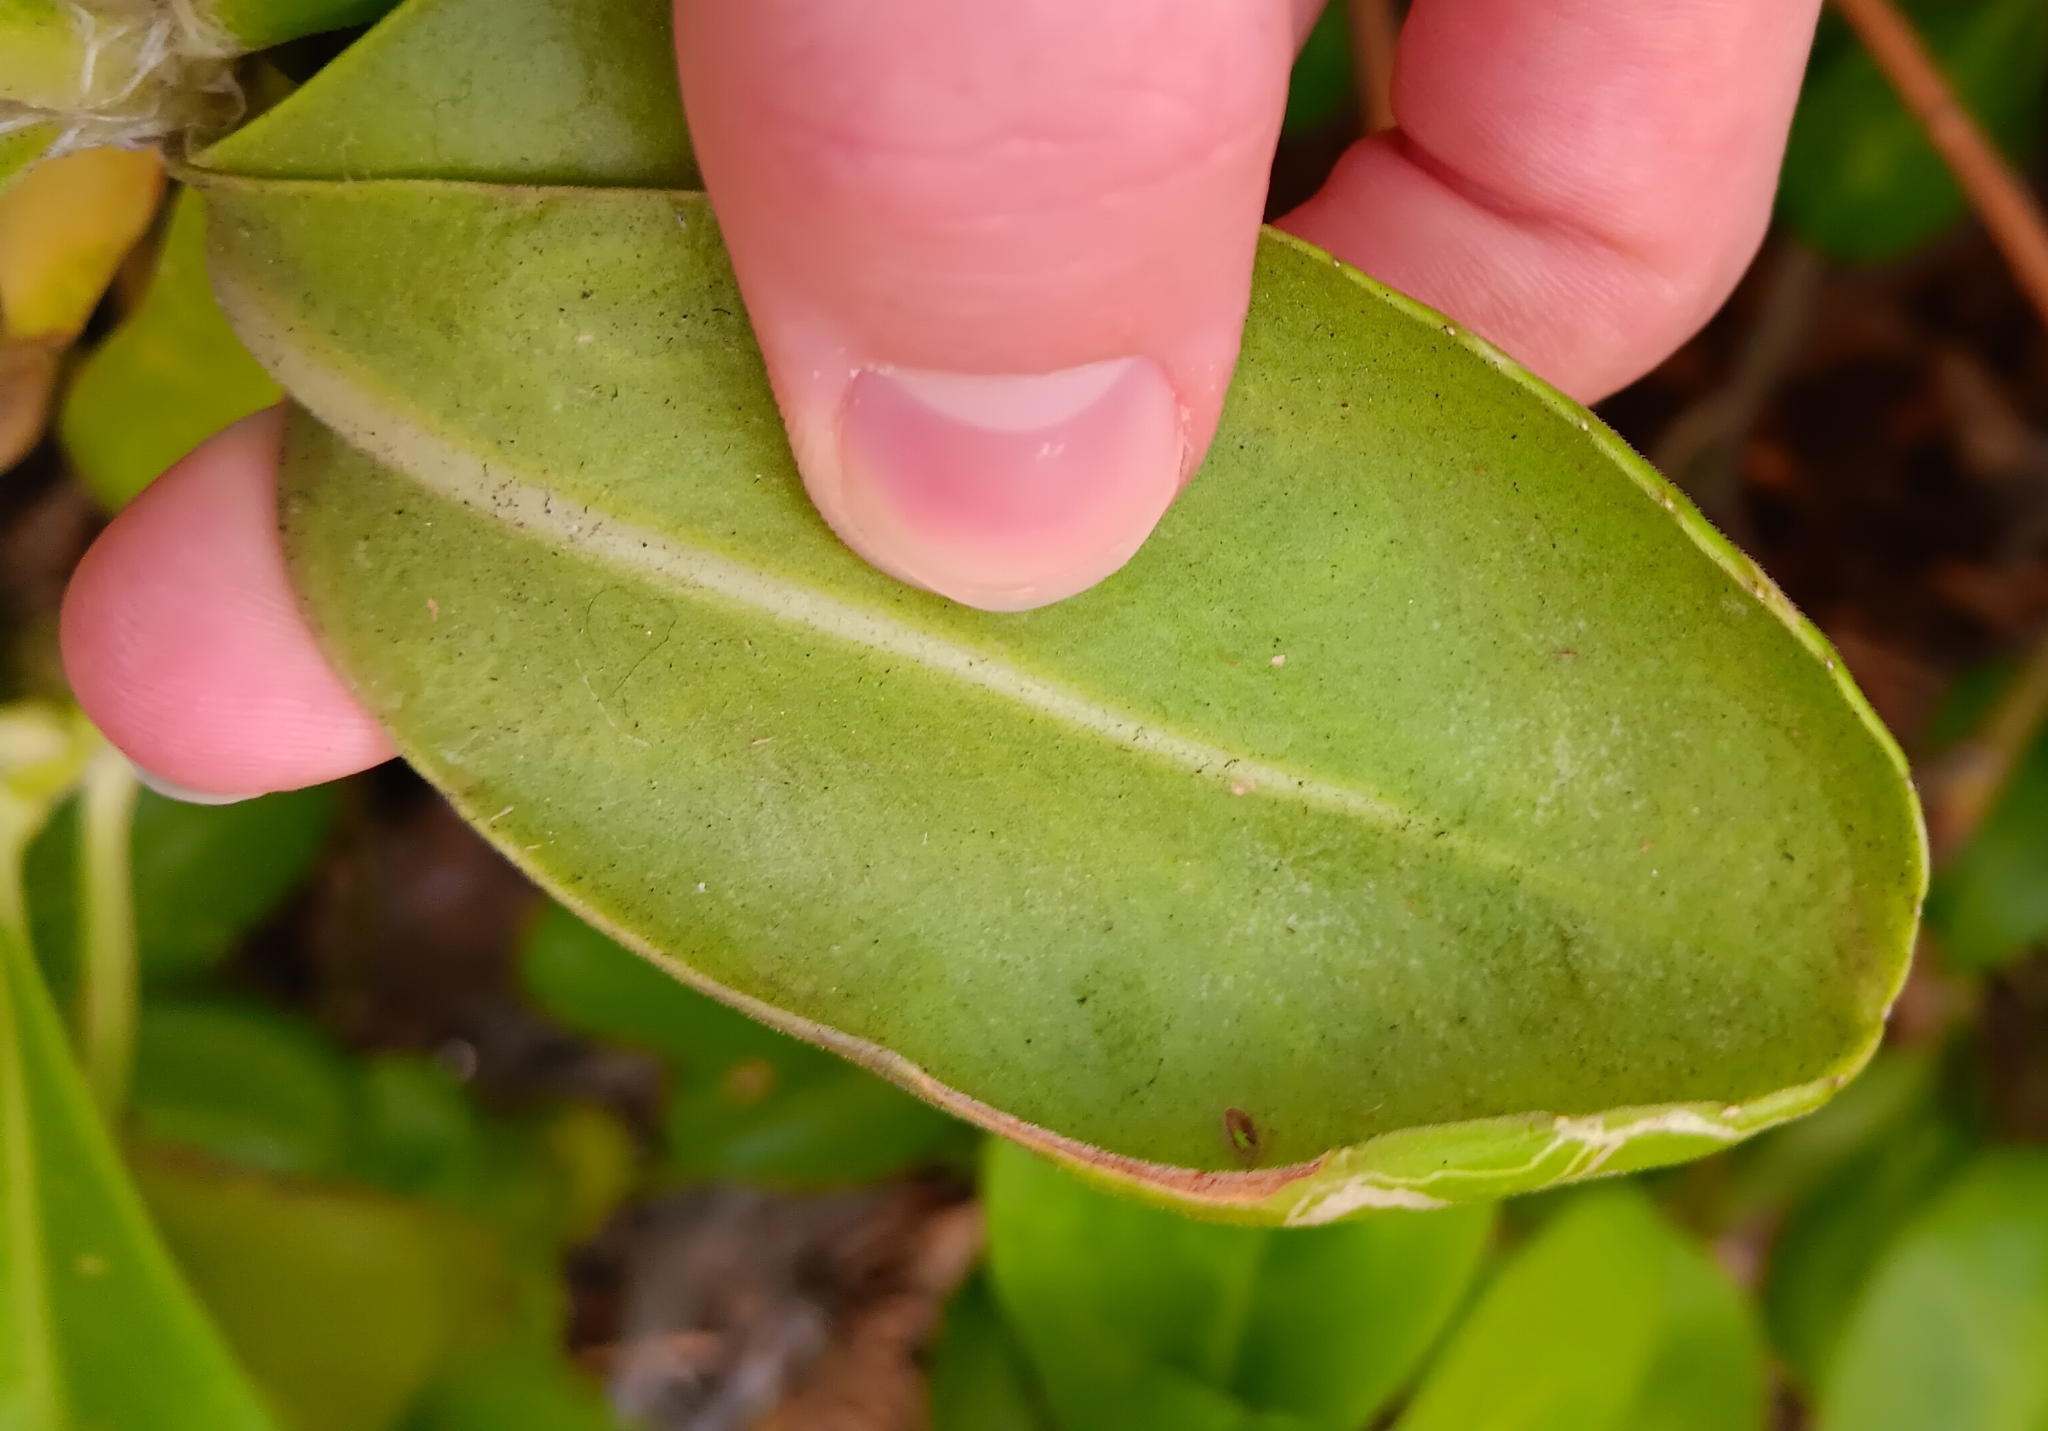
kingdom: Animalia
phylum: Arthropoda
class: Insecta
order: Diptera
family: Agromyzidae
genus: Ophiomyia
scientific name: Ophiomyia cornuta
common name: Leafminer fly
